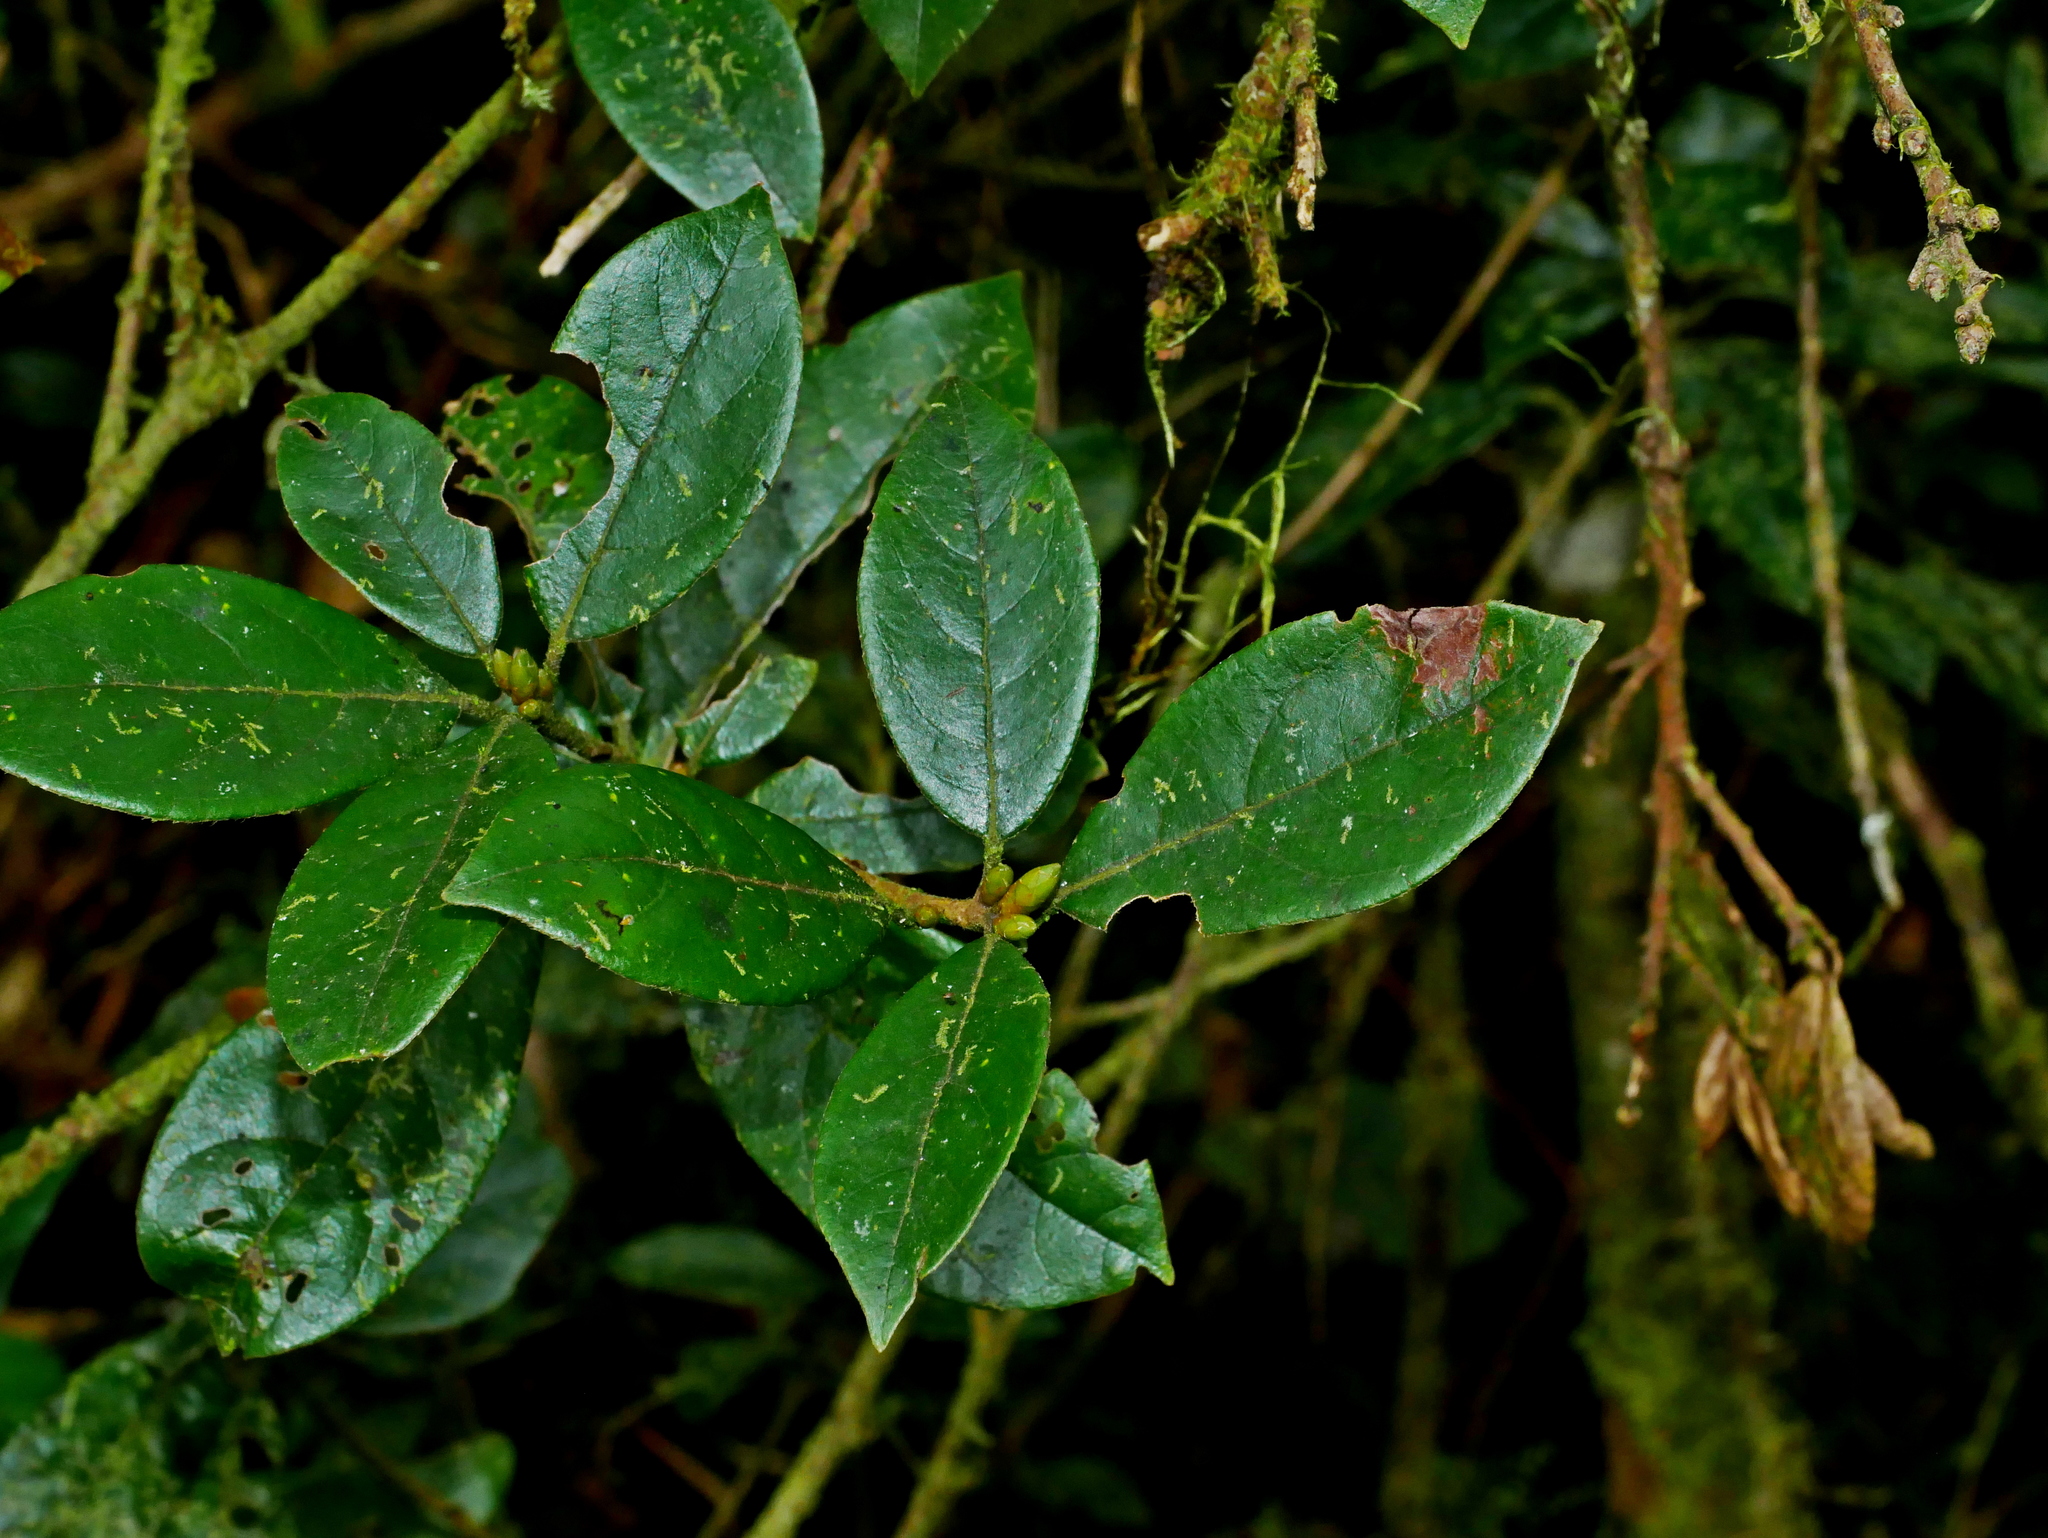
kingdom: Plantae
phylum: Tracheophyta
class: Magnoliopsida
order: Laurales
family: Lauraceae
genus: Actinodaphne
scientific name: Actinodaphne mushaensis
